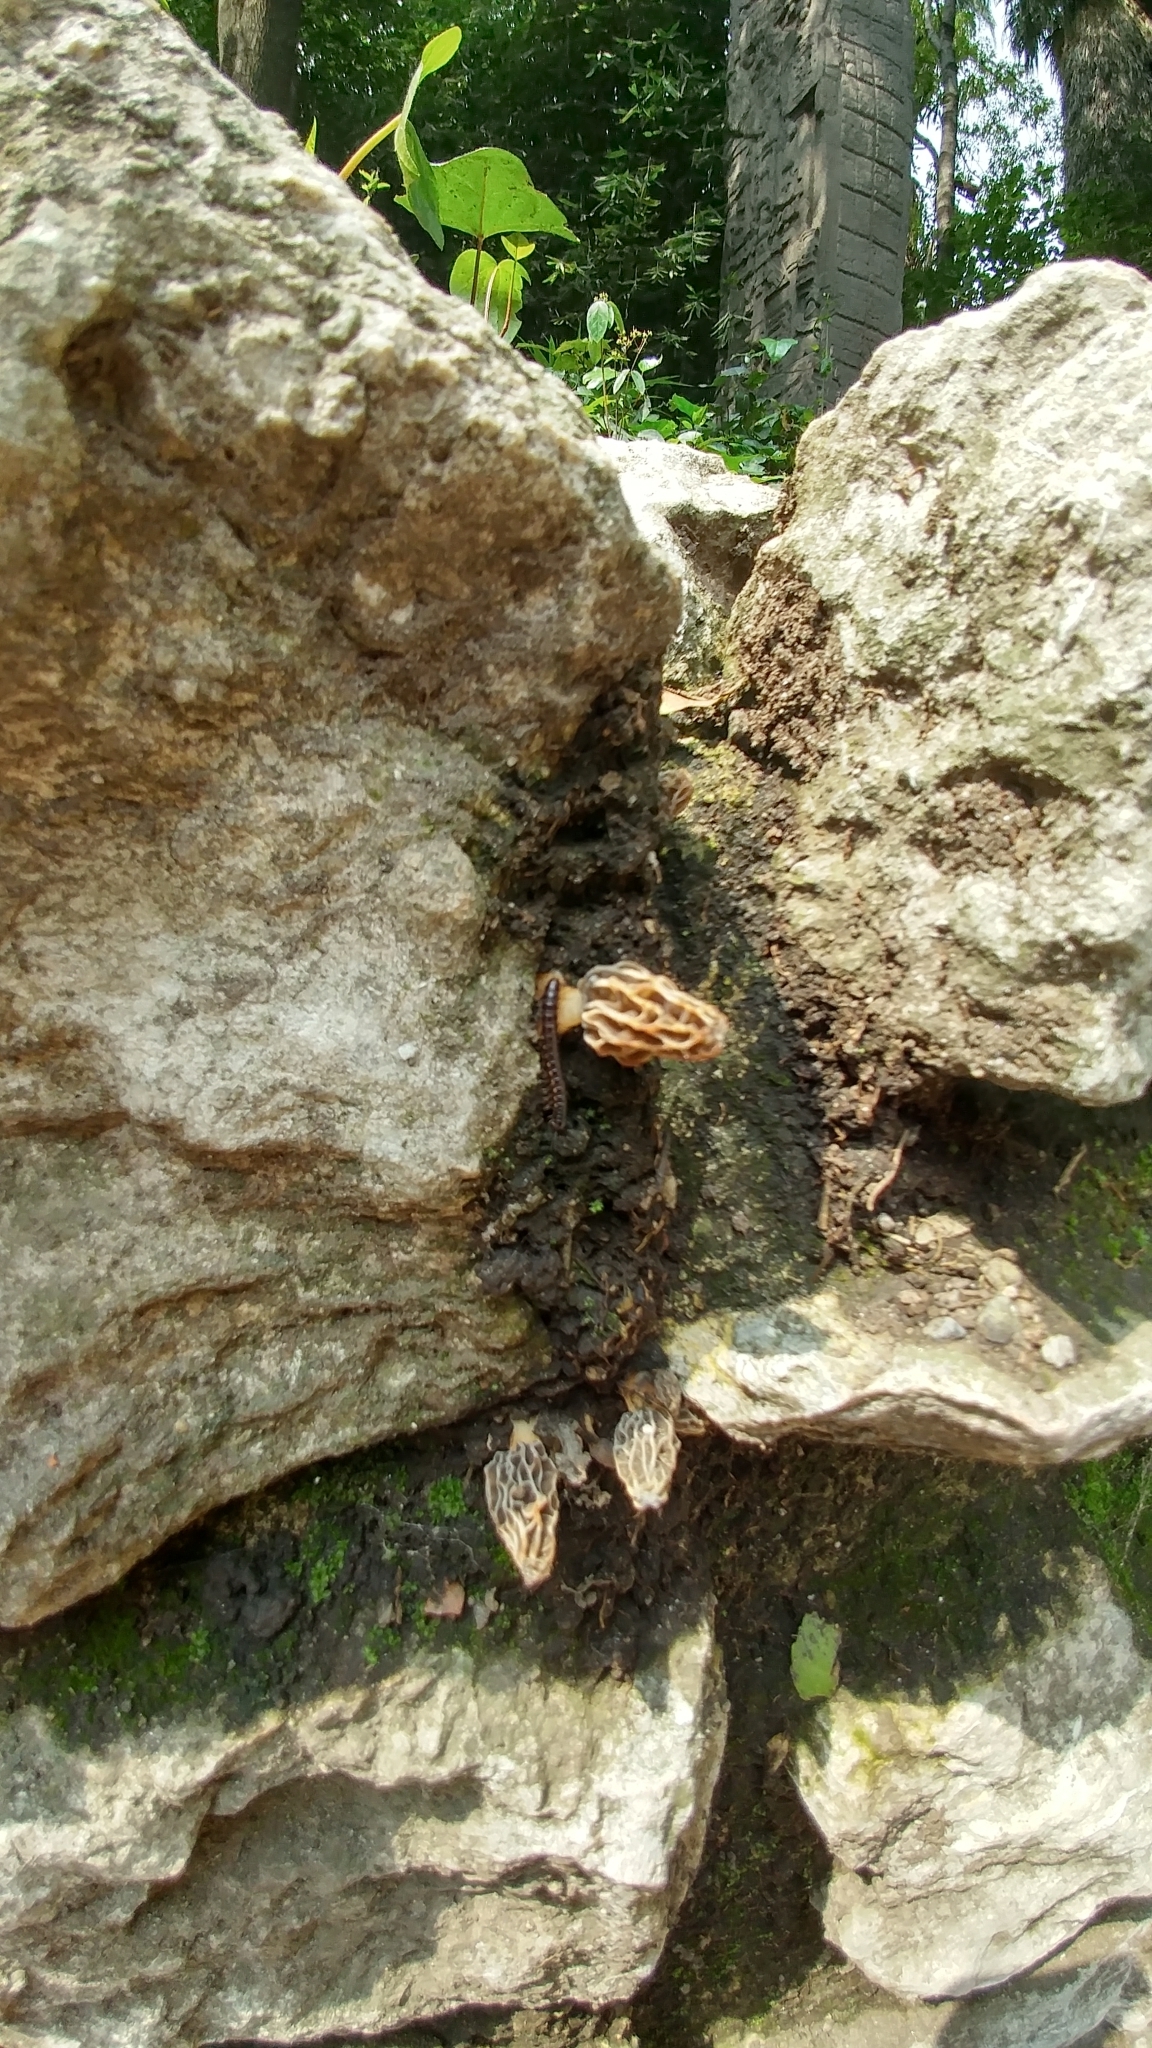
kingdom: Fungi
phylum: Ascomycota
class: Pezizomycetes
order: Pezizales
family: Morchellaceae
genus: Morchella
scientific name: Morchella rufobrunnea
